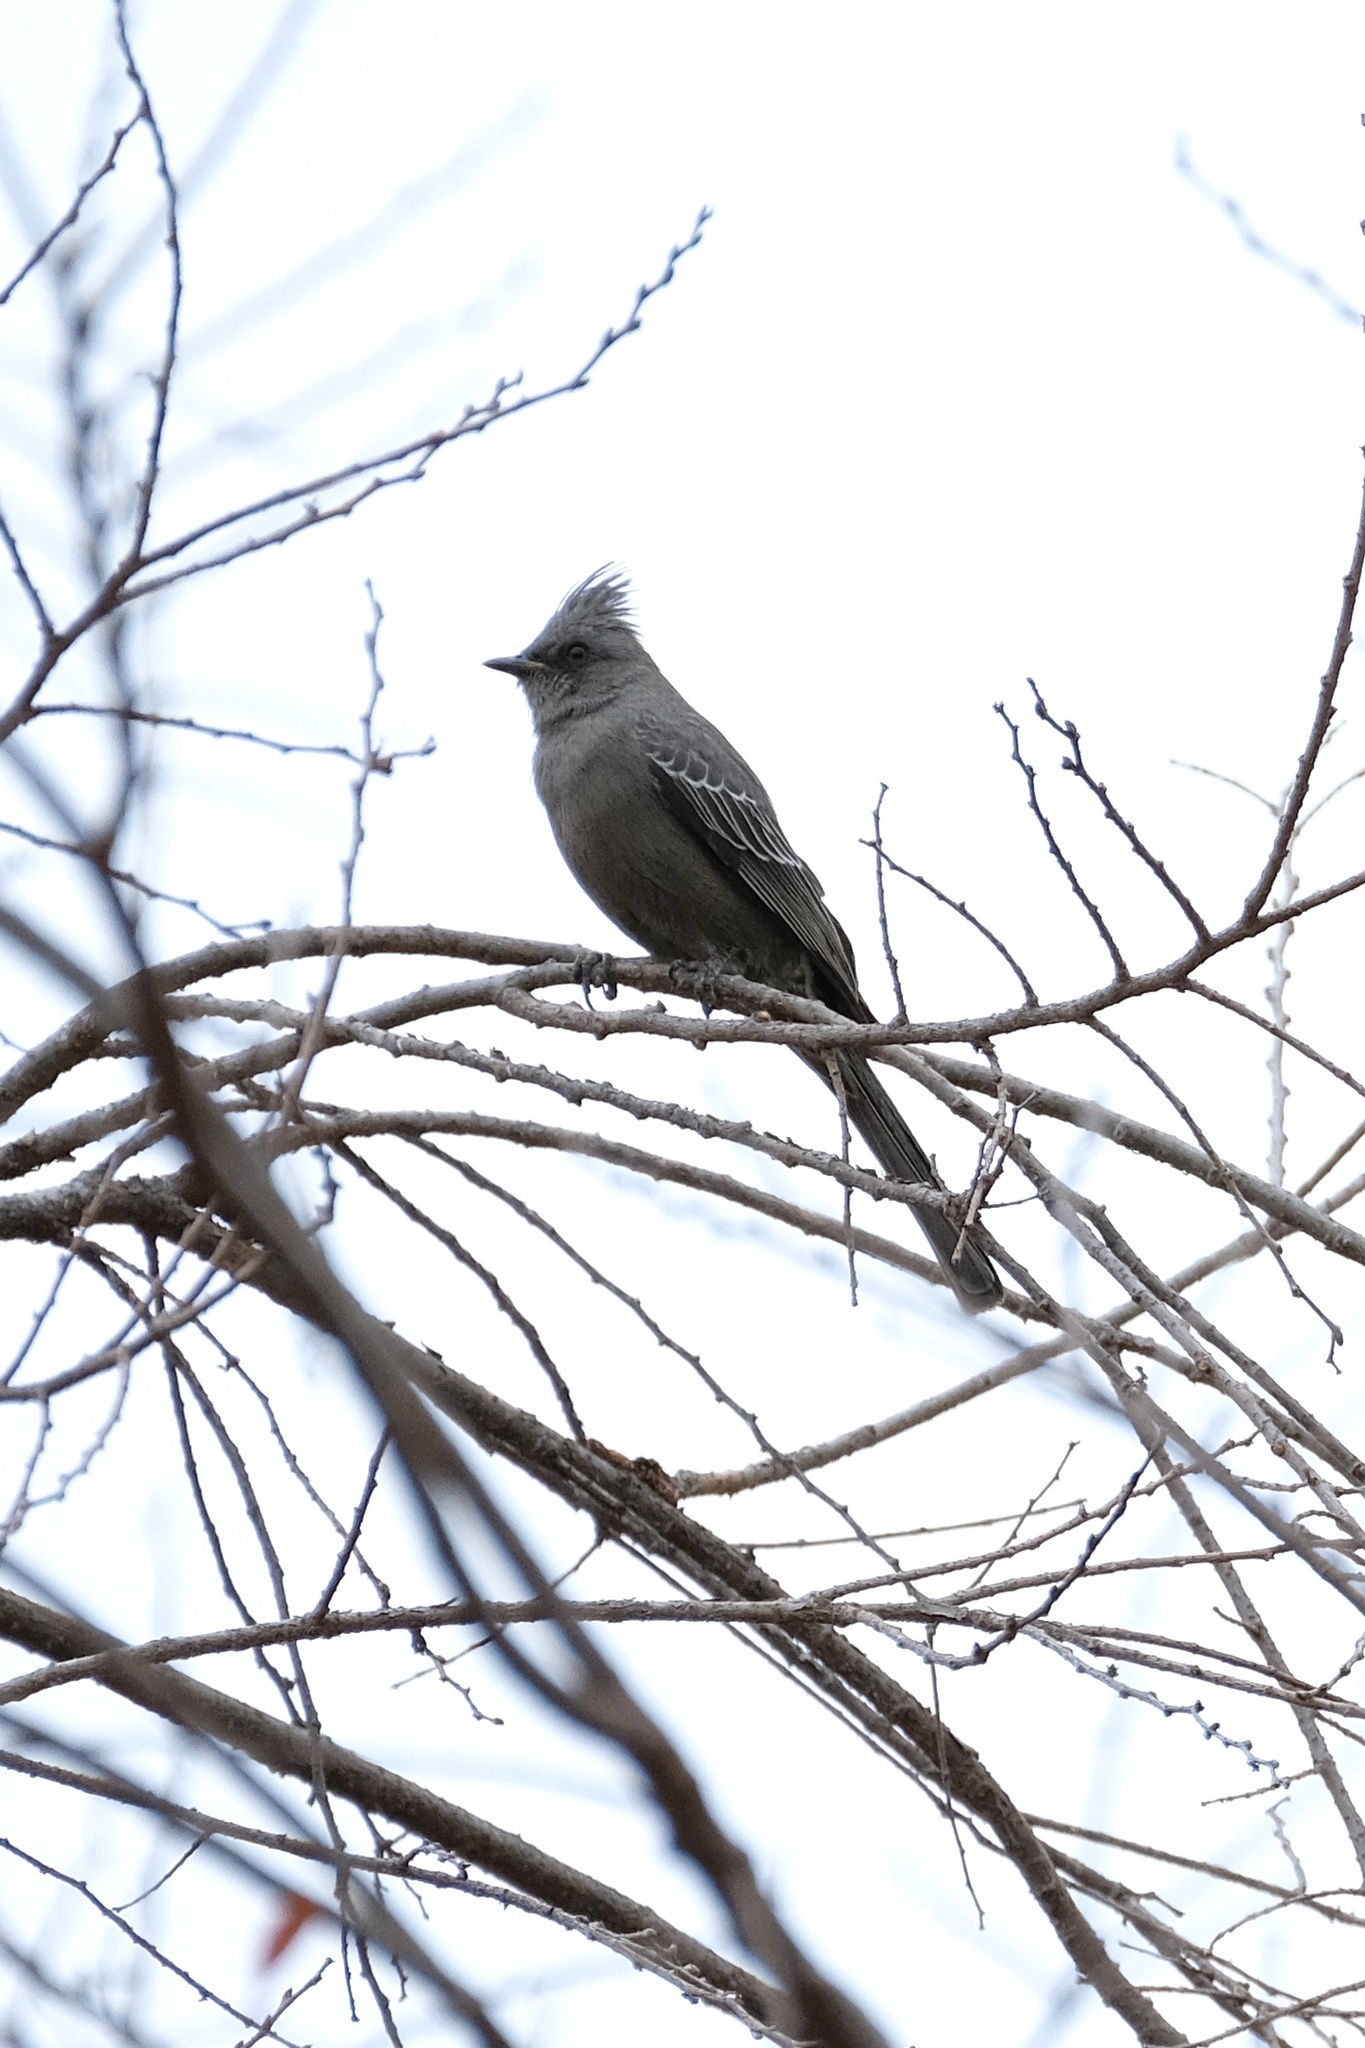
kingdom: Animalia
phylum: Chordata
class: Aves
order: Passeriformes
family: Ptilogonatidae
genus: Phainopepla
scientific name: Phainopepla nitens
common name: Phainopepla
